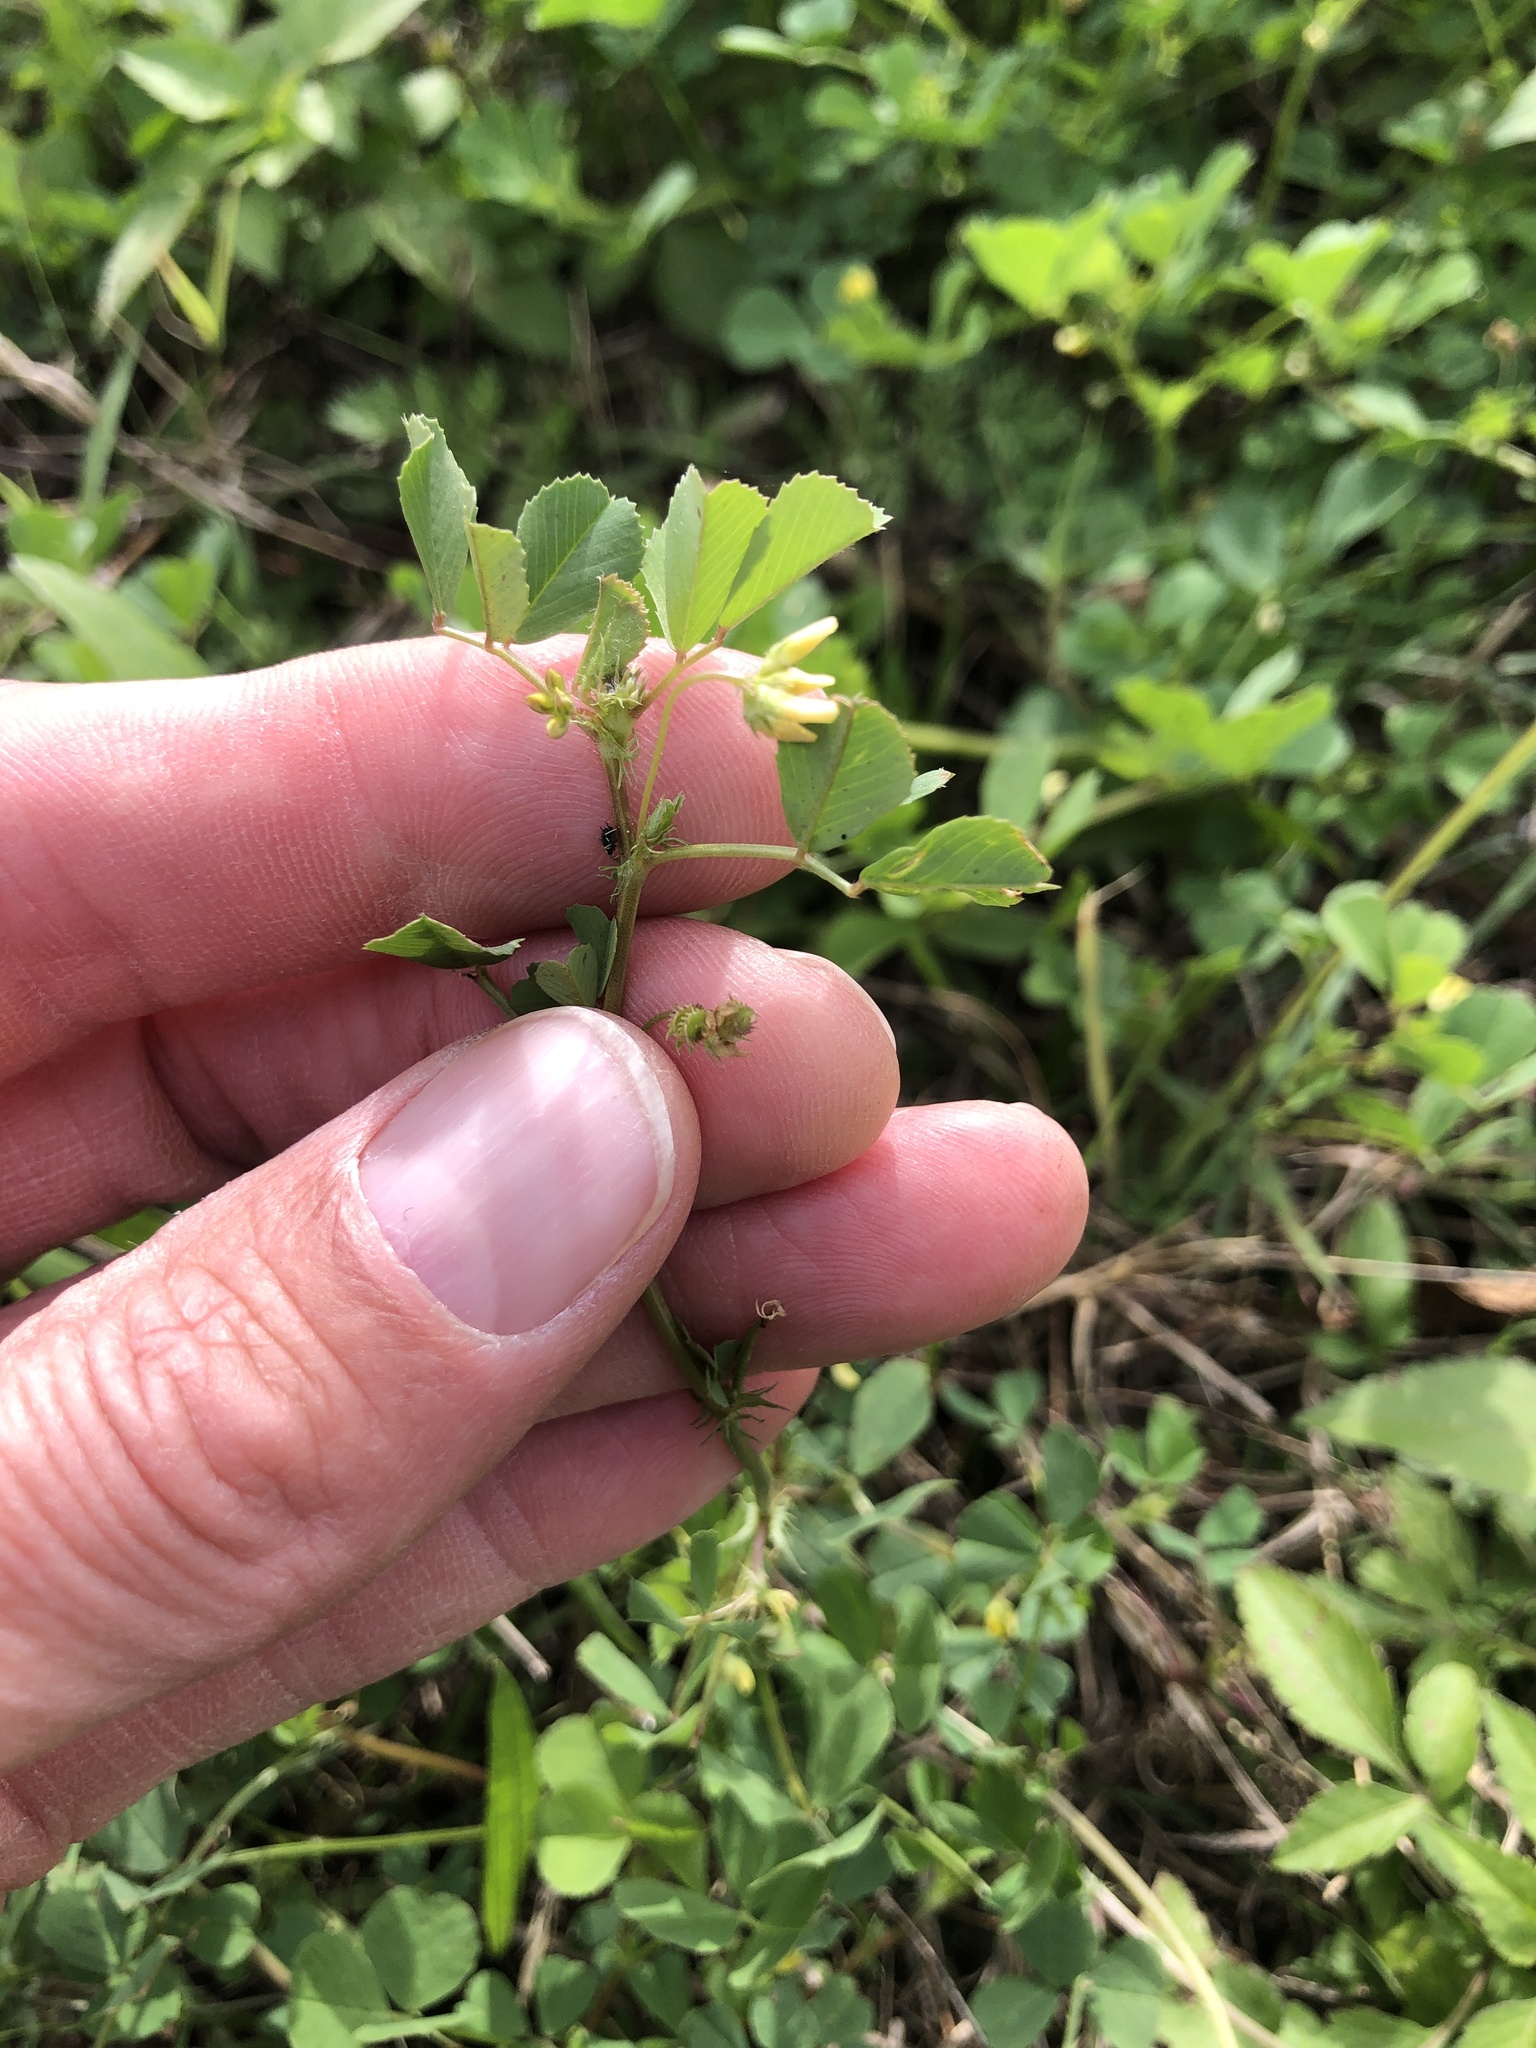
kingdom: Plantae
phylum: Tracheophyta
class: Magnoliopsida
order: Fabales
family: Fabaceae
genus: Medicago
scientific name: Medicago polymorpha
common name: Burclover
